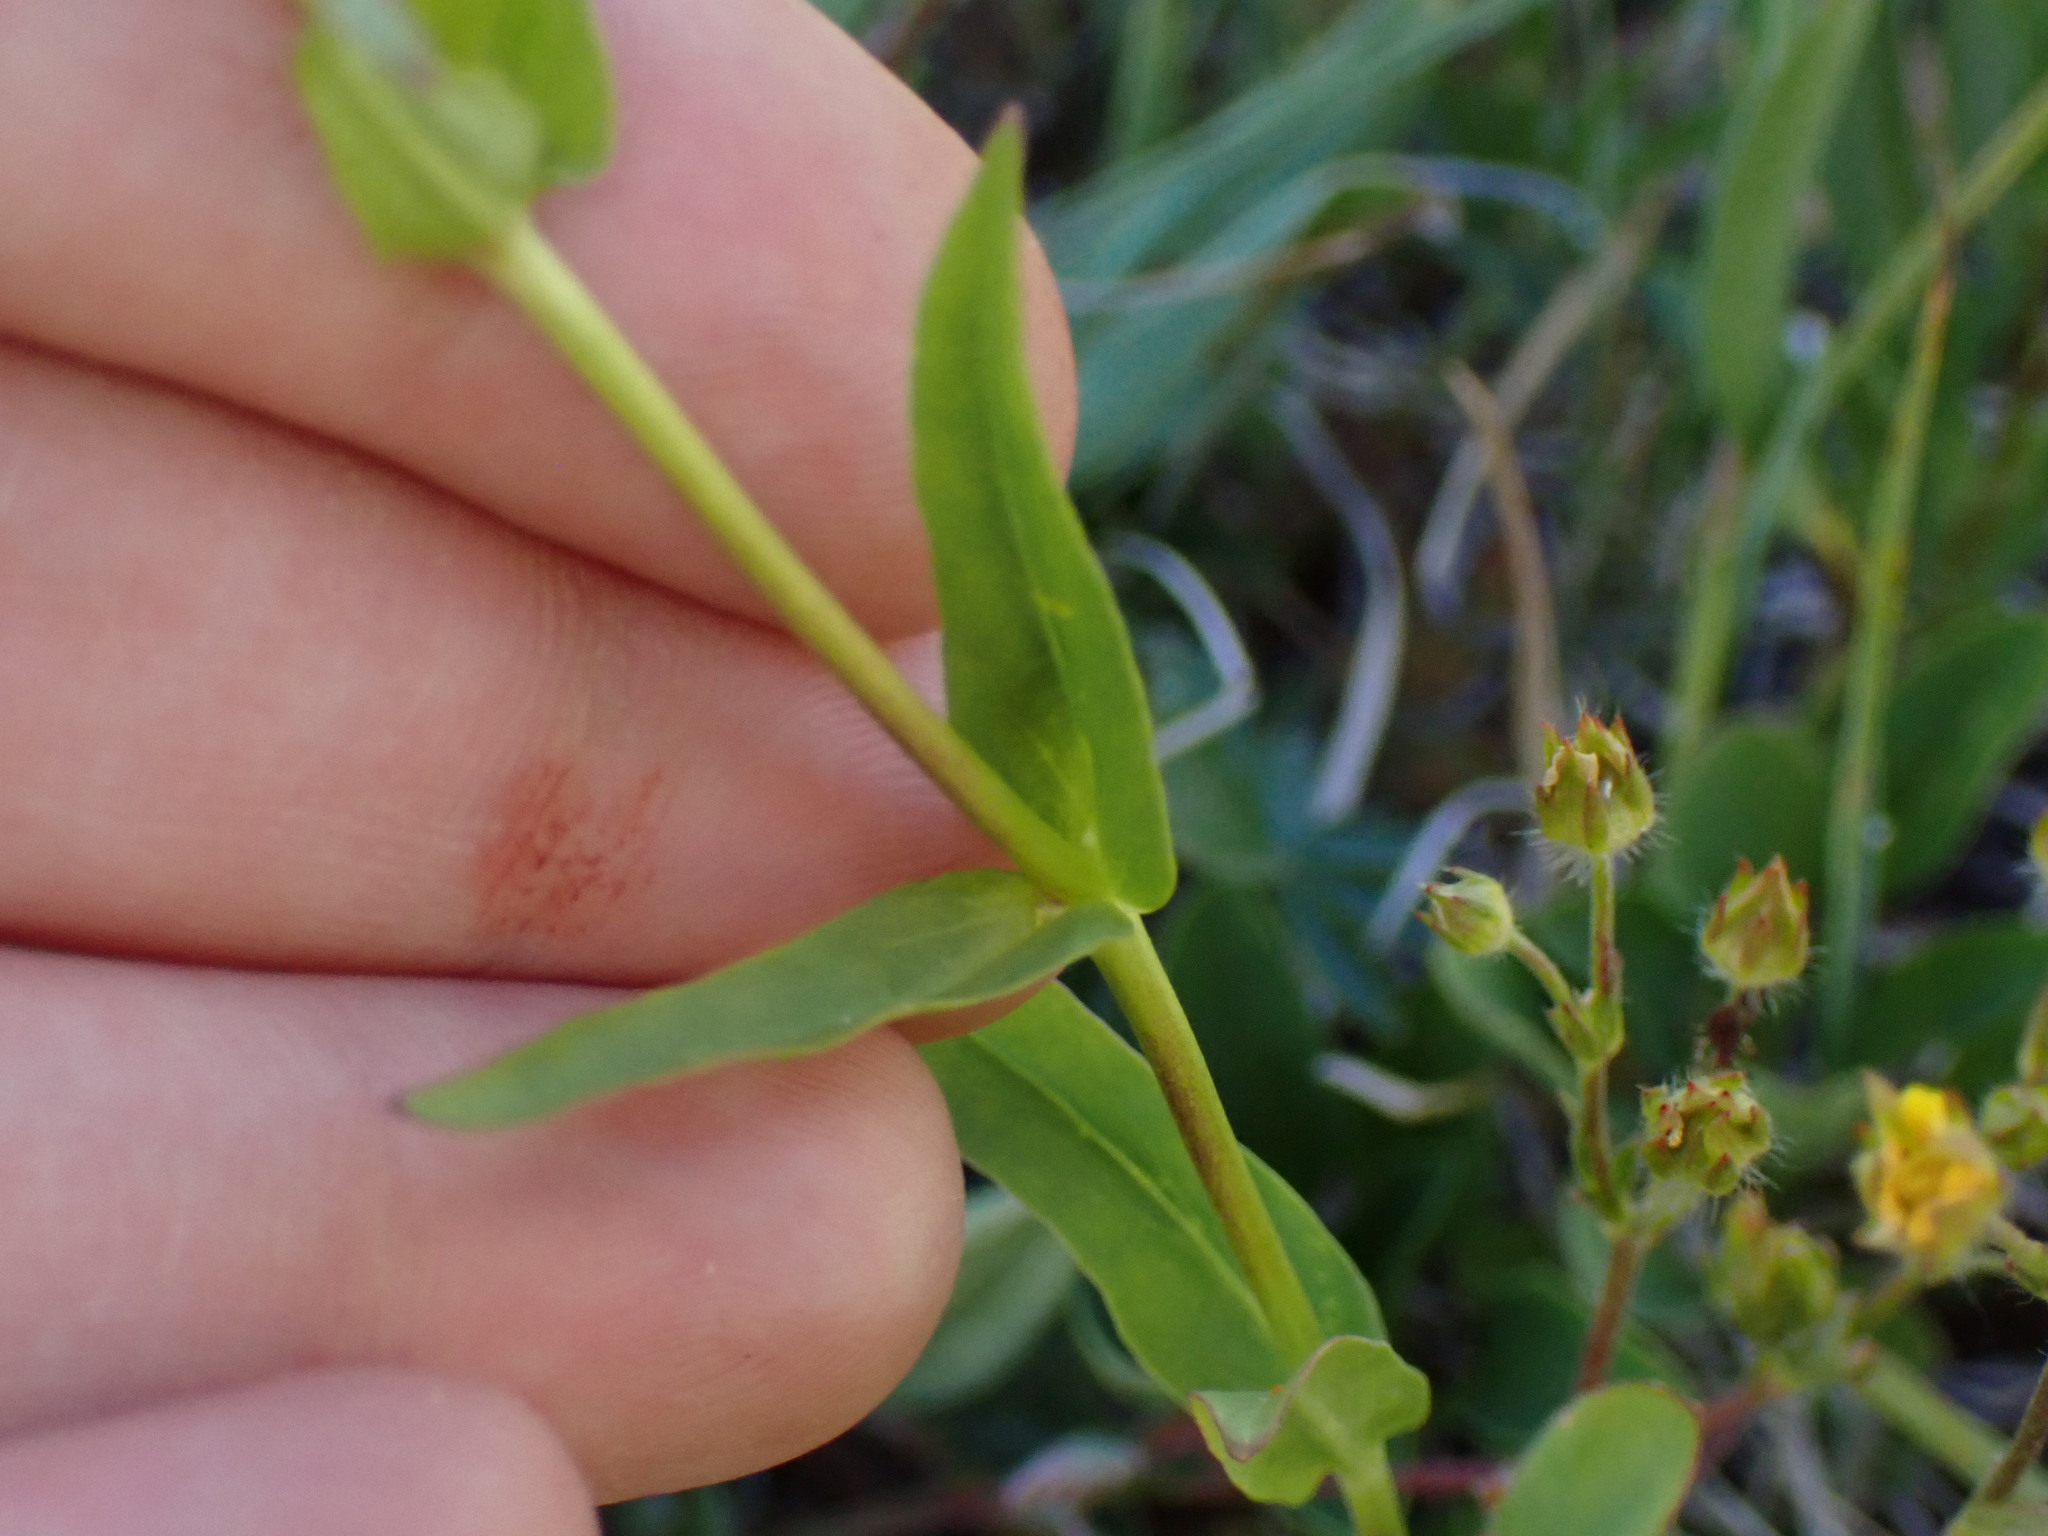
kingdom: Plantae
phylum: Tracheophyta
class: Magnoliopsida
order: Lamiales
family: Plantaginaceae
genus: Penstemon
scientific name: Penstemon whippleanus
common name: Whipple's penstemon
